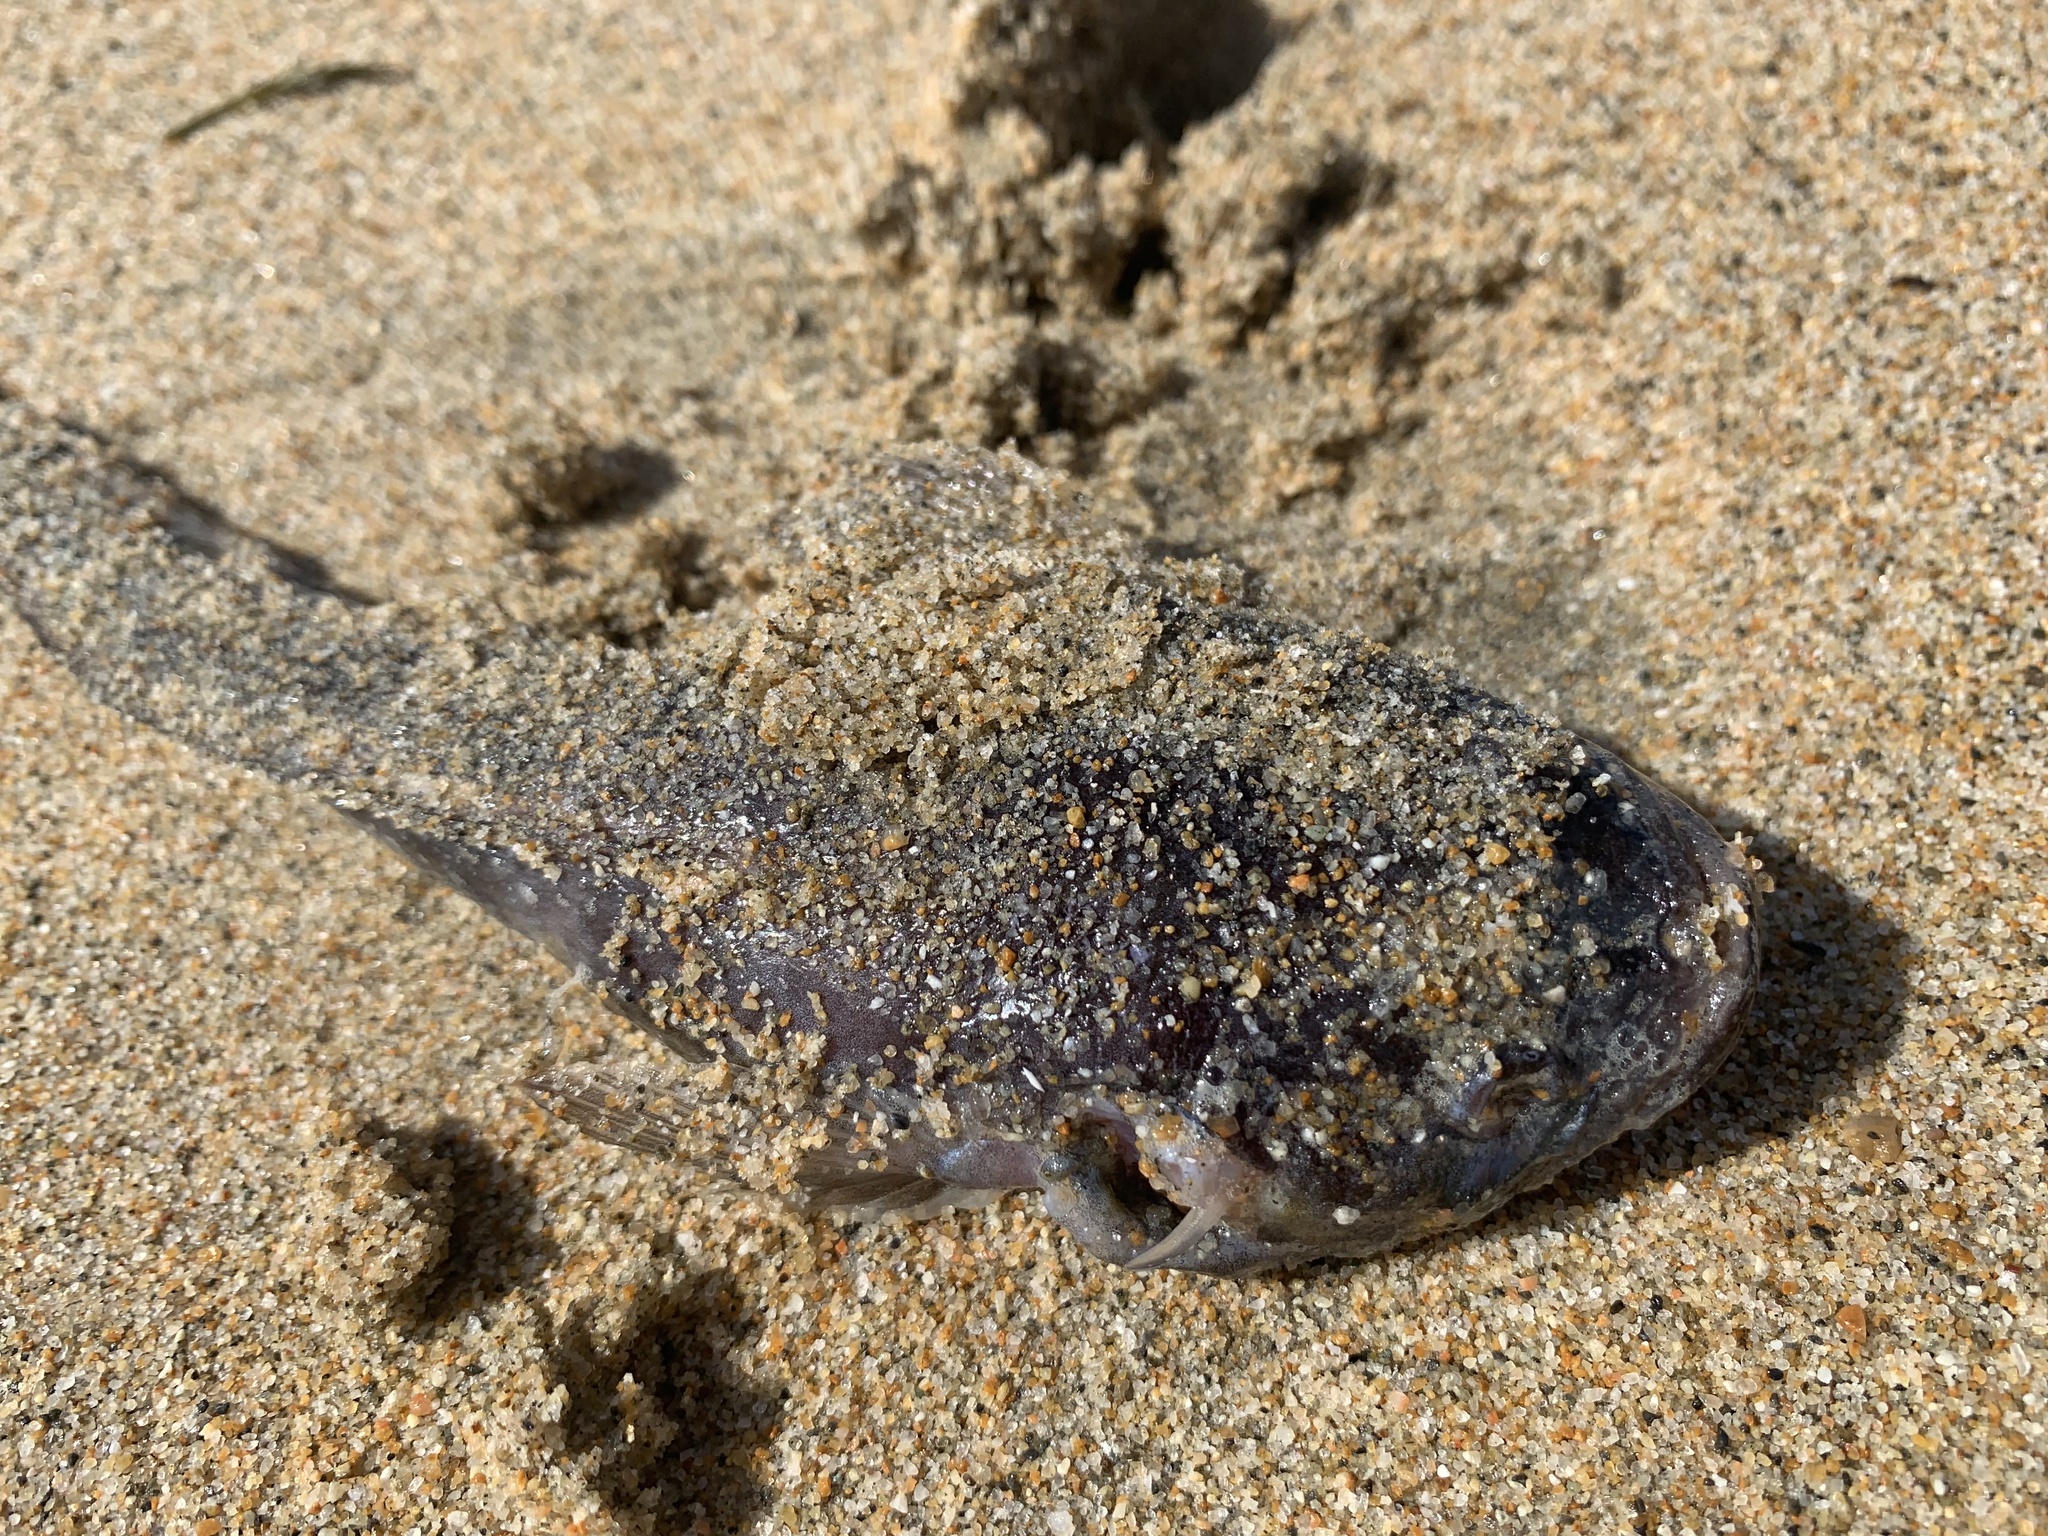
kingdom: Animalia
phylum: Chordata
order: Batrachoidiformes
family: Batrachoididae
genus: Porichthys
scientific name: Porichthys notatus
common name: Plainfin midshipman
